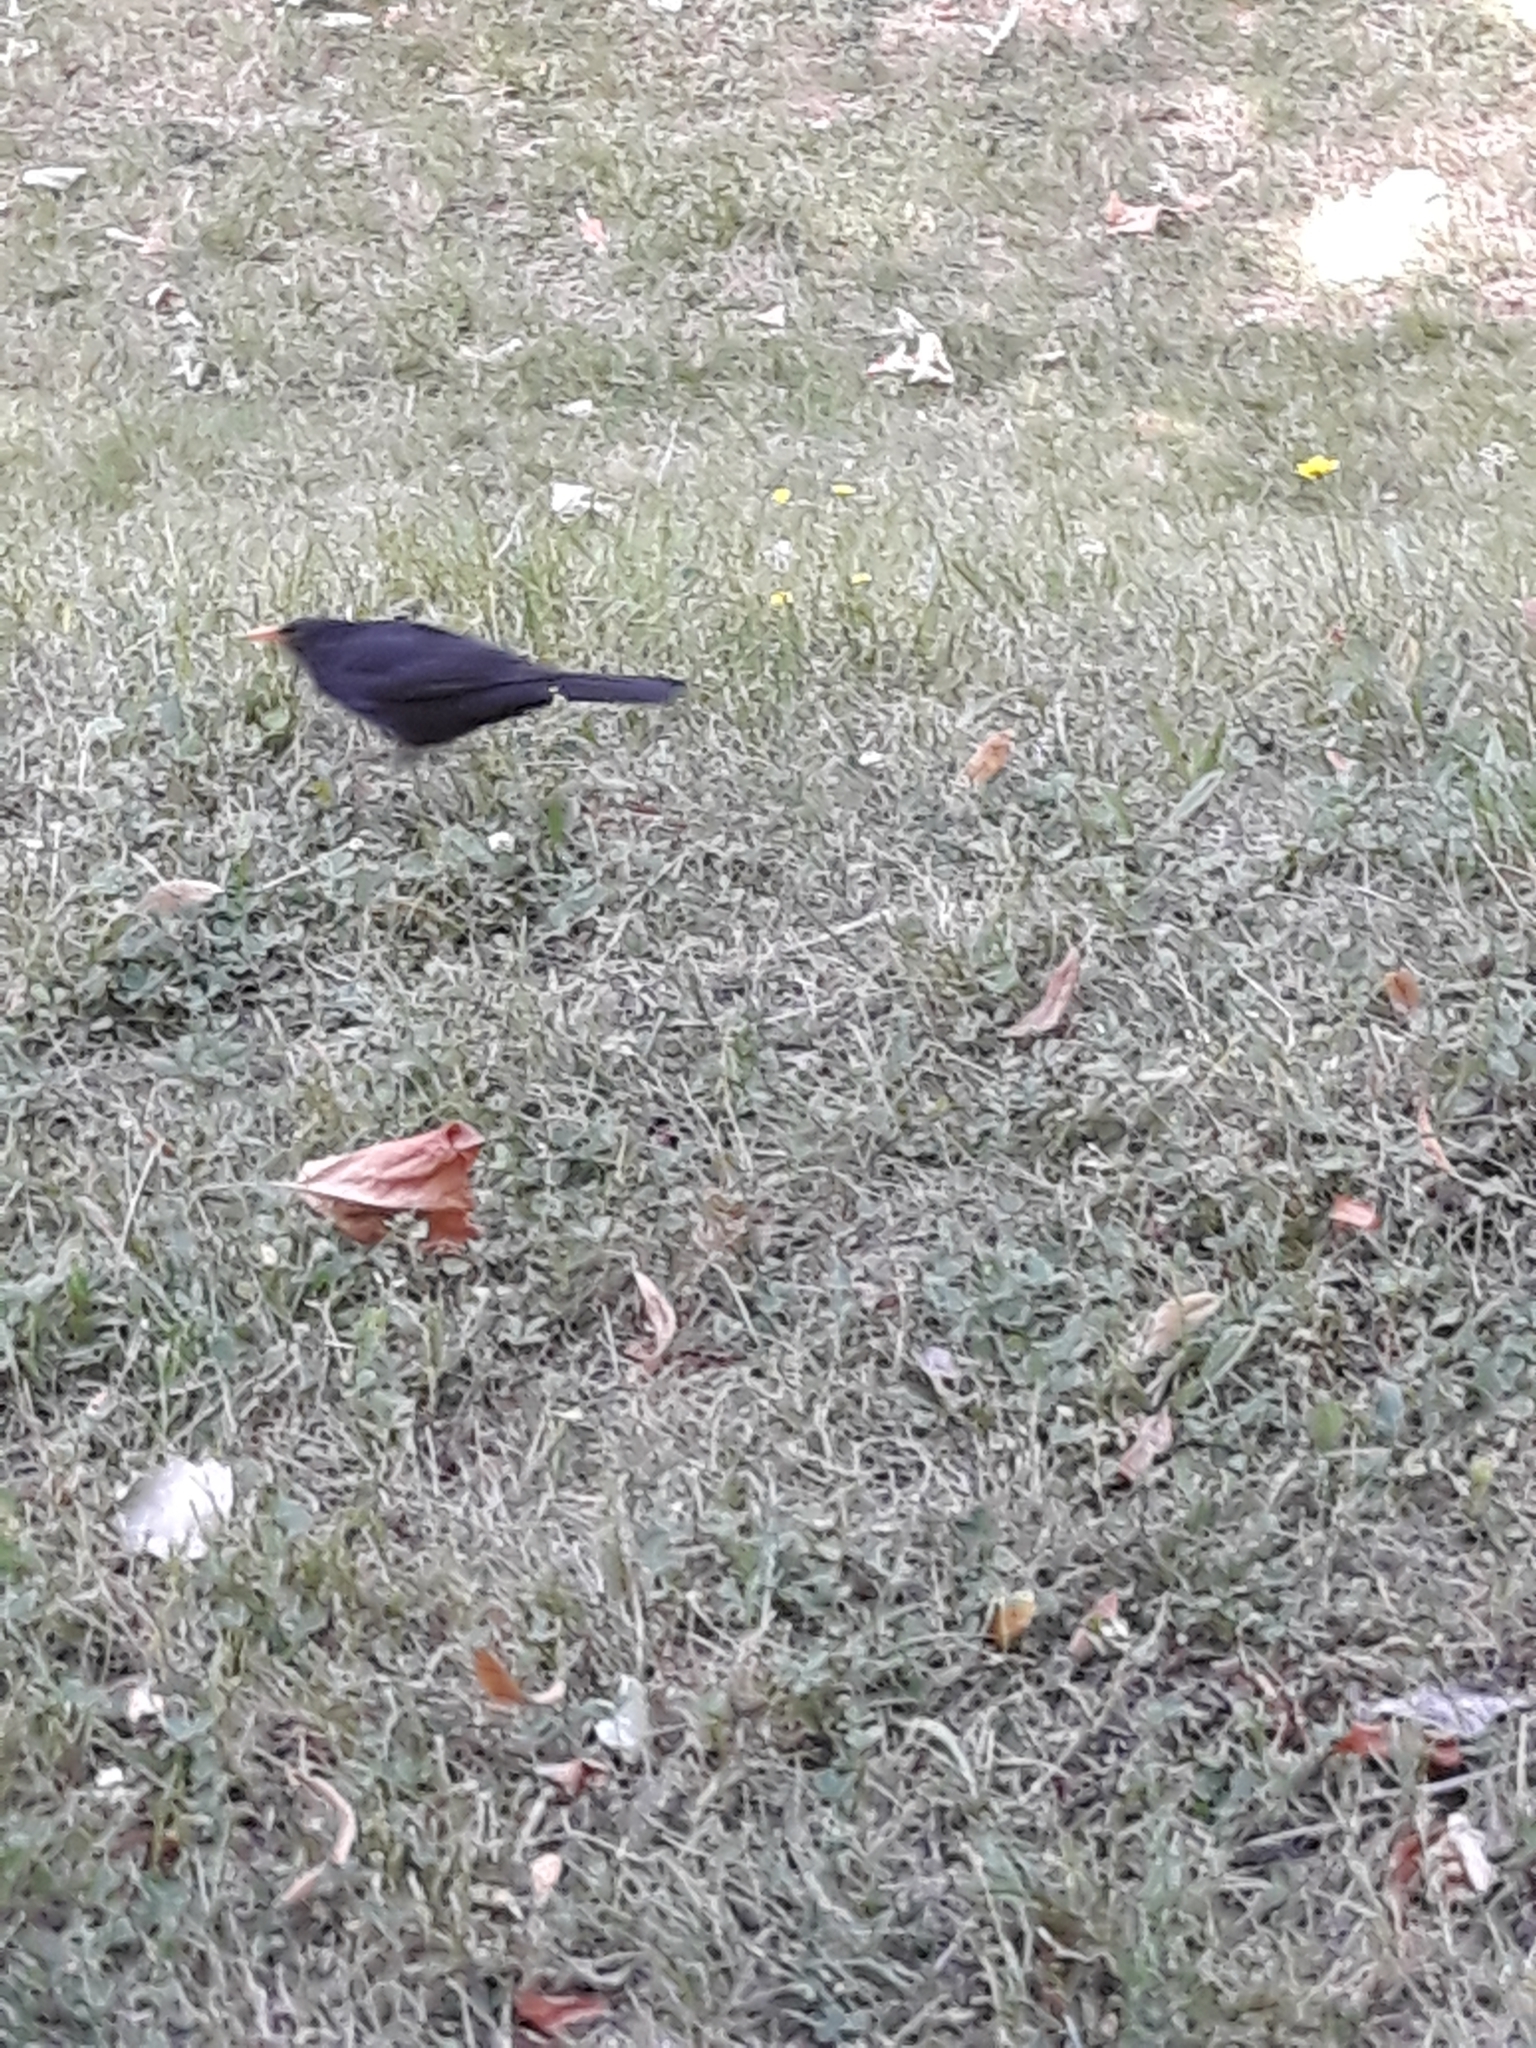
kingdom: Animalia
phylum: Chordata
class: Aves
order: Passeriformes
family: Turdidae
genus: Turdus
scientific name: Turdus merula
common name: Common blackbird
